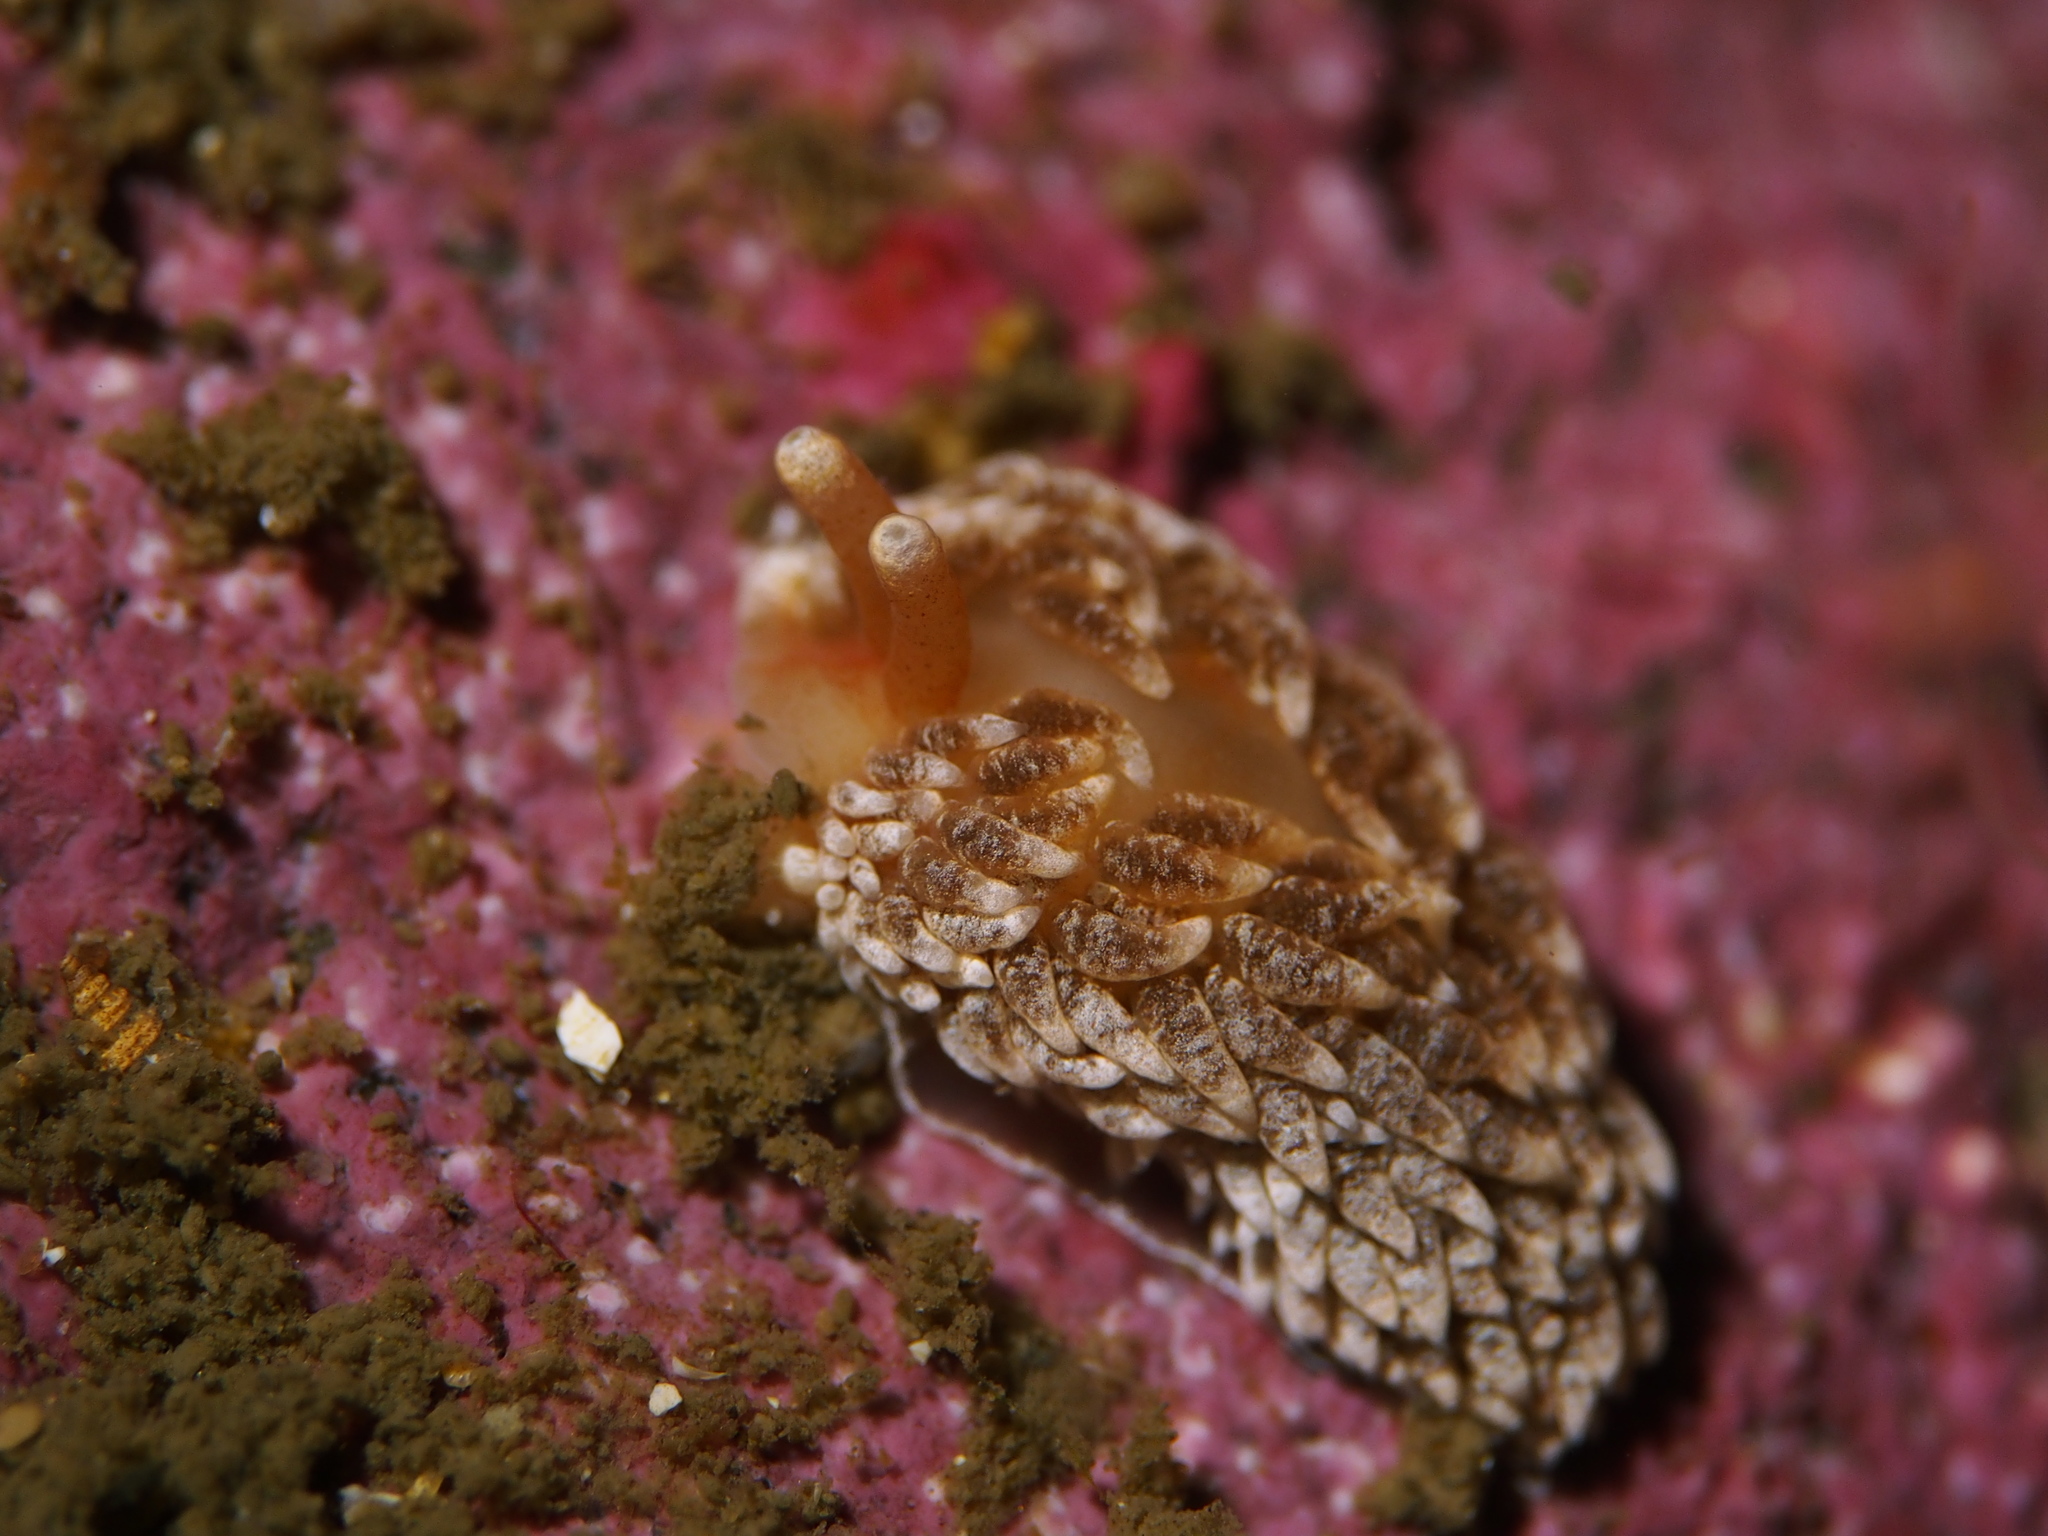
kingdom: Animalia
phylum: Mollusca
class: Gastropoda
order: Nudibranchia
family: Aeolidiidae
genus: Aeolidiella
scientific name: Aeolidiella glauca
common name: Orange-brown aeolid
